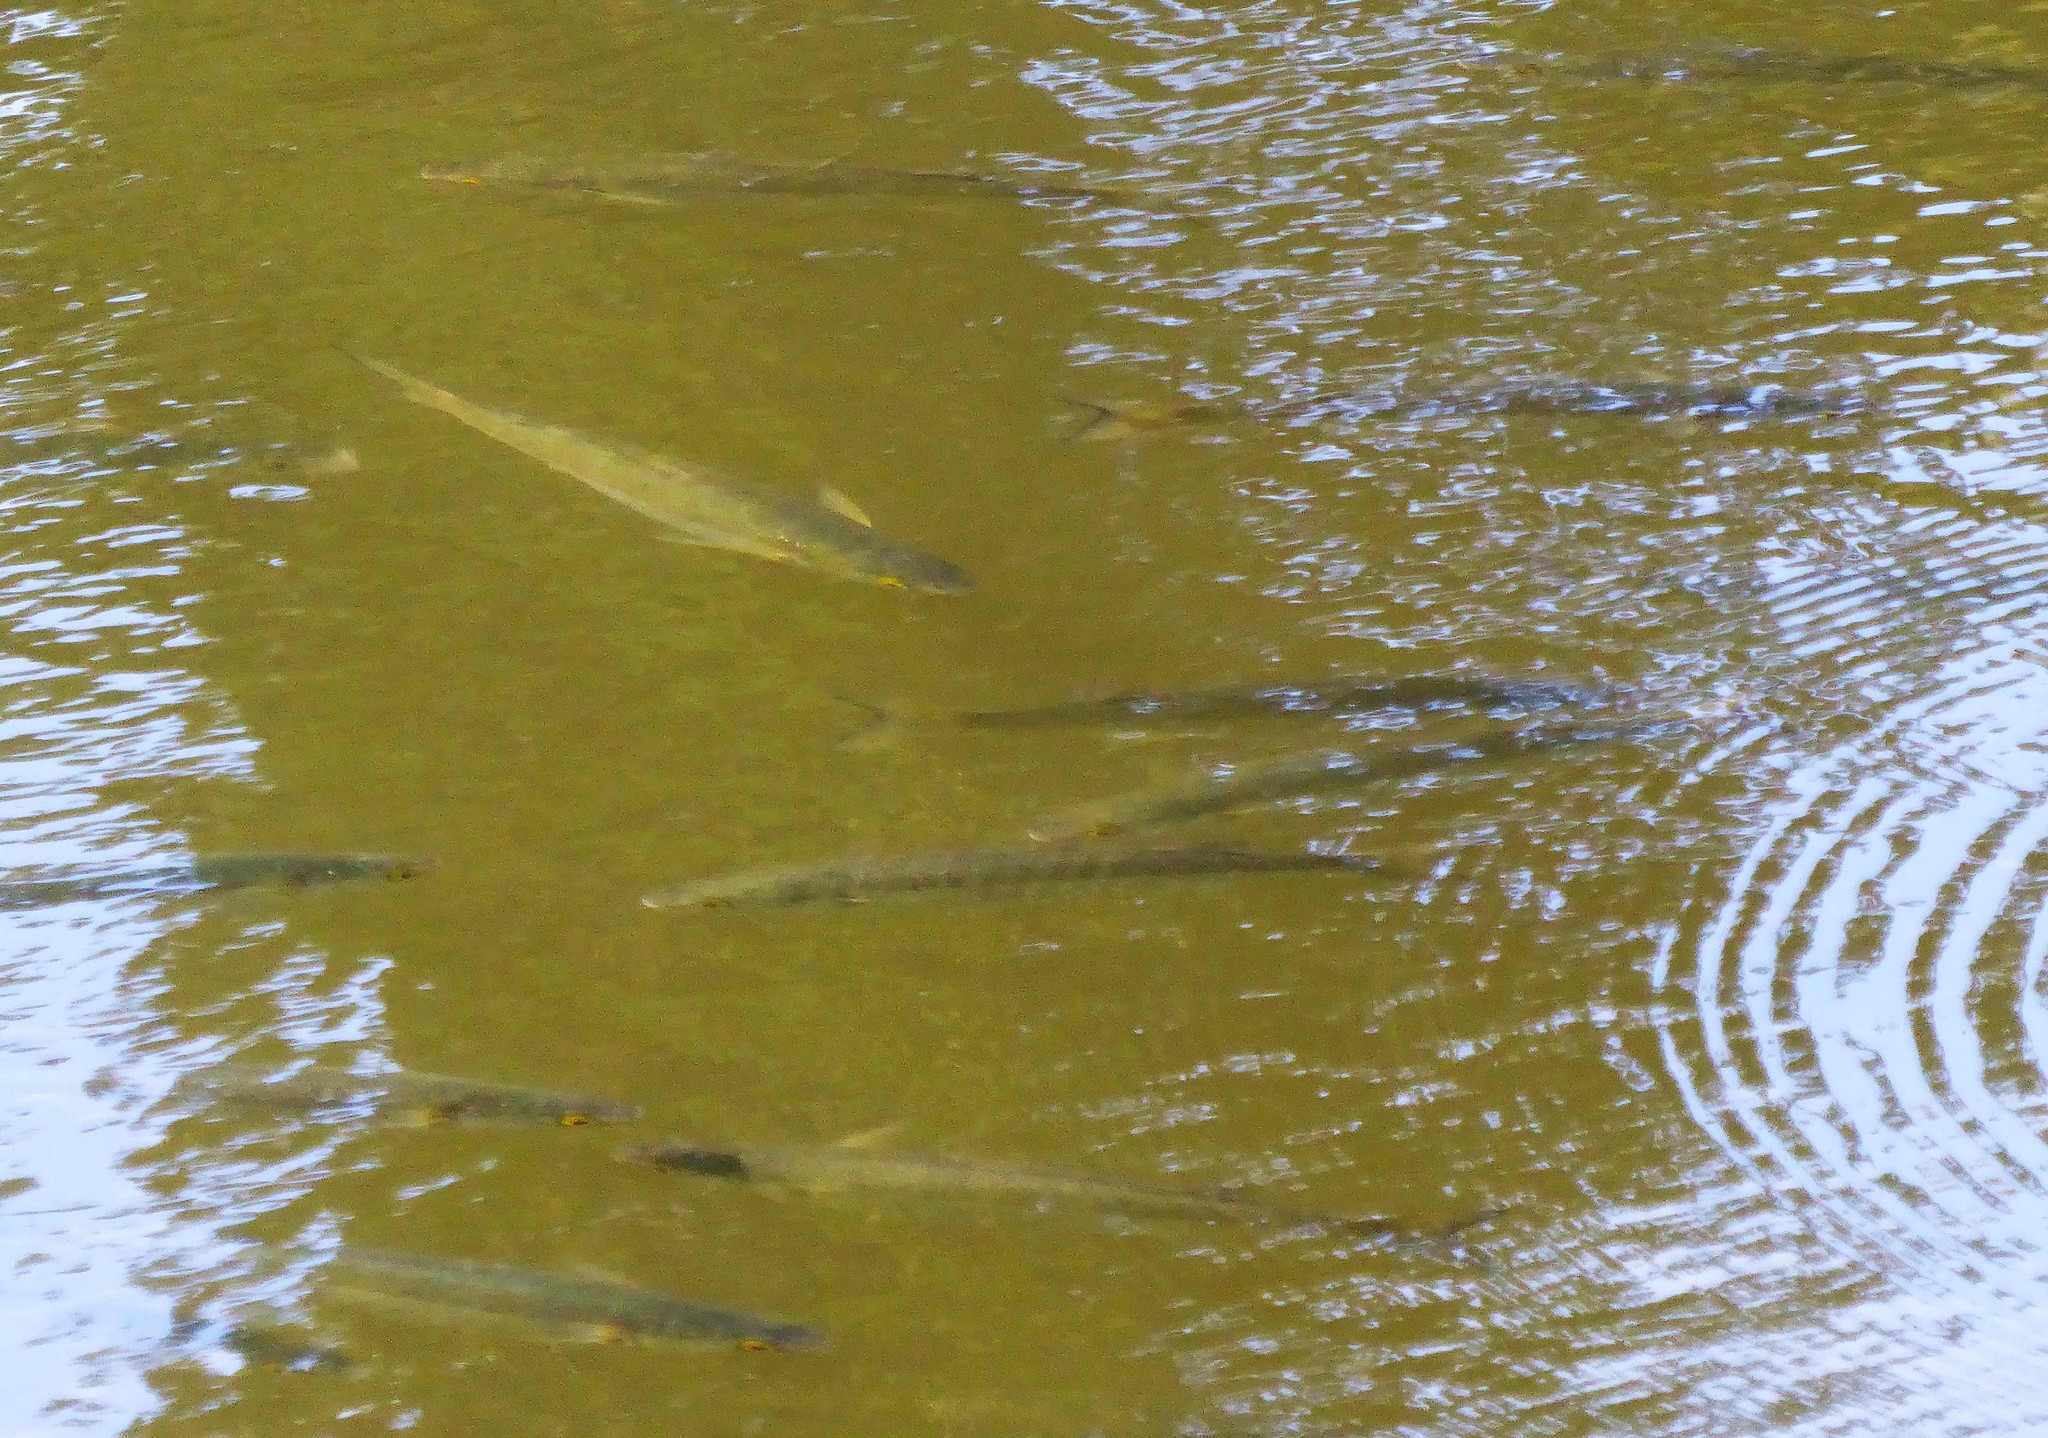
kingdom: Animalia
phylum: Chordata
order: Mugiliformes
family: Mugilidae
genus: Aldrichetta
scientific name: Aldrichetta forsteri
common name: Yellow-eye mullet
